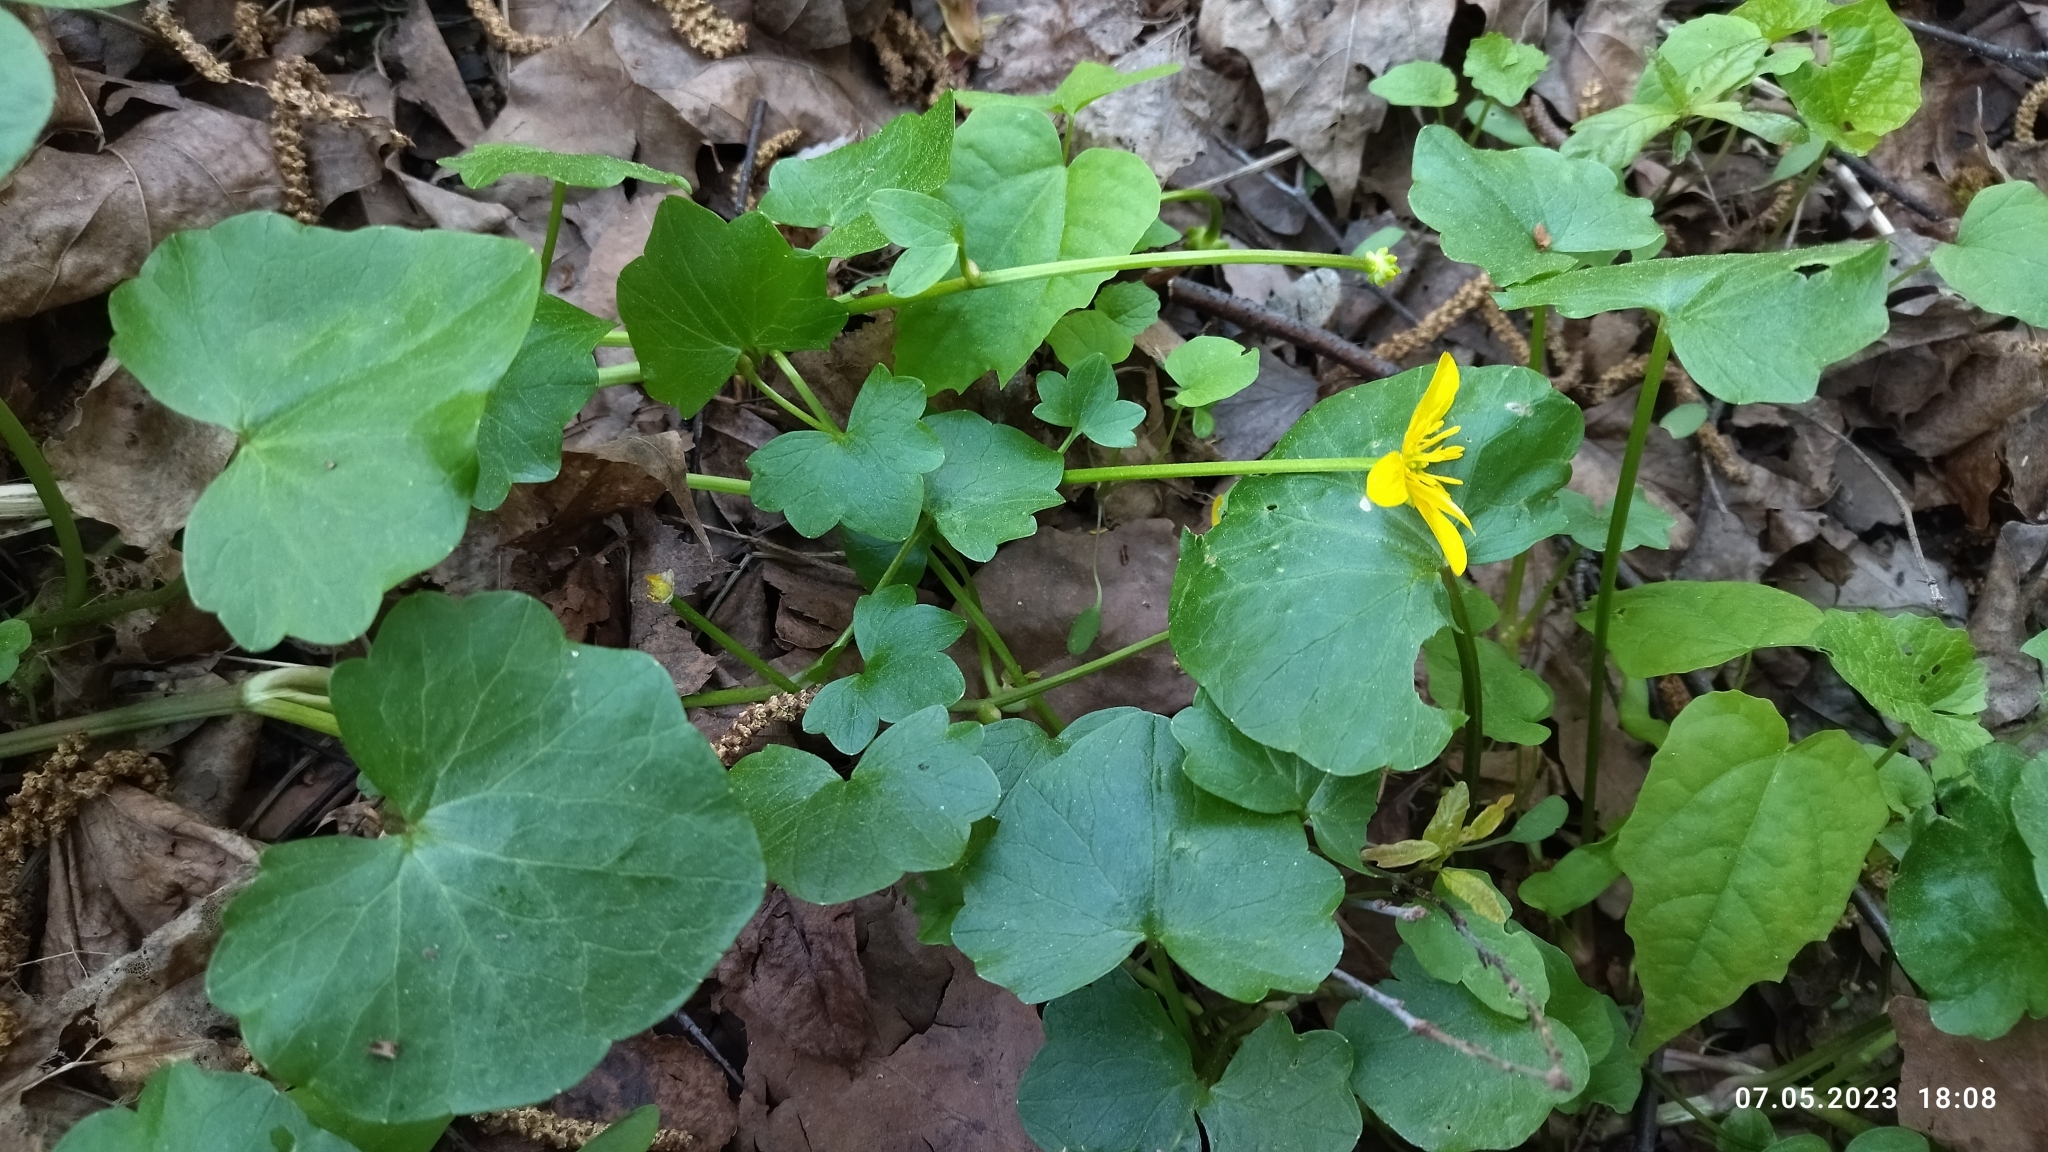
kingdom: Plantae
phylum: Tracheophyta
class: Magnoliopsida
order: Ranunculales
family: Ranunculaceae
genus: Ficaria
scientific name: Ficaria verna
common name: Lesser celandine
